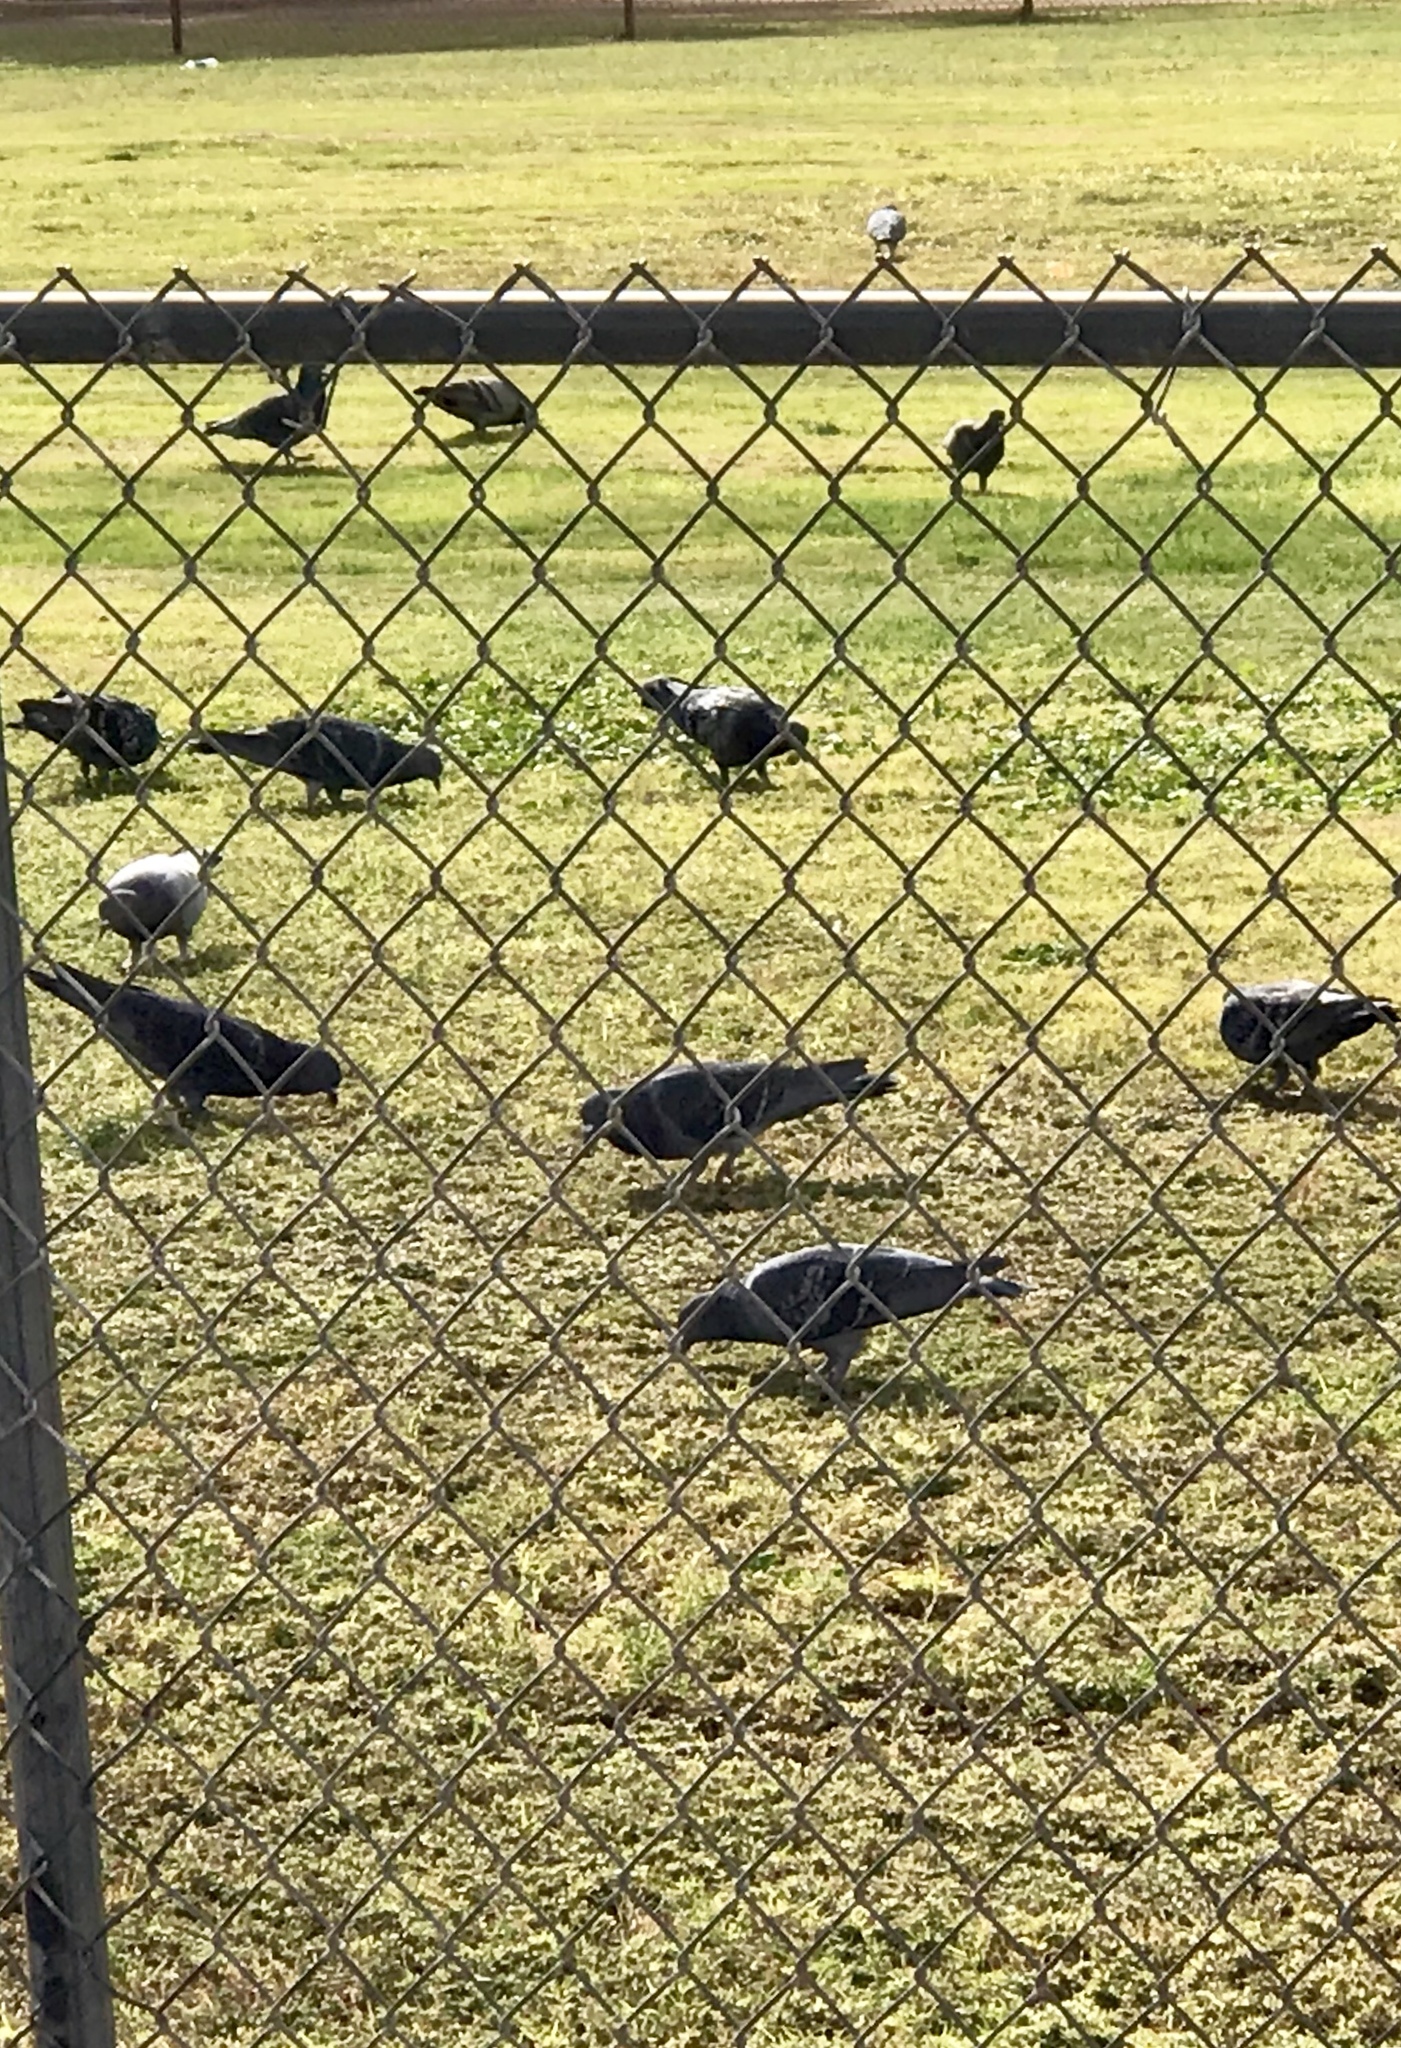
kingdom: Animalia
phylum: Chordata
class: Aves
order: Columbiformes
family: Columbidae
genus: Columba
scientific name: Columba livia
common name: Rock pigeon
